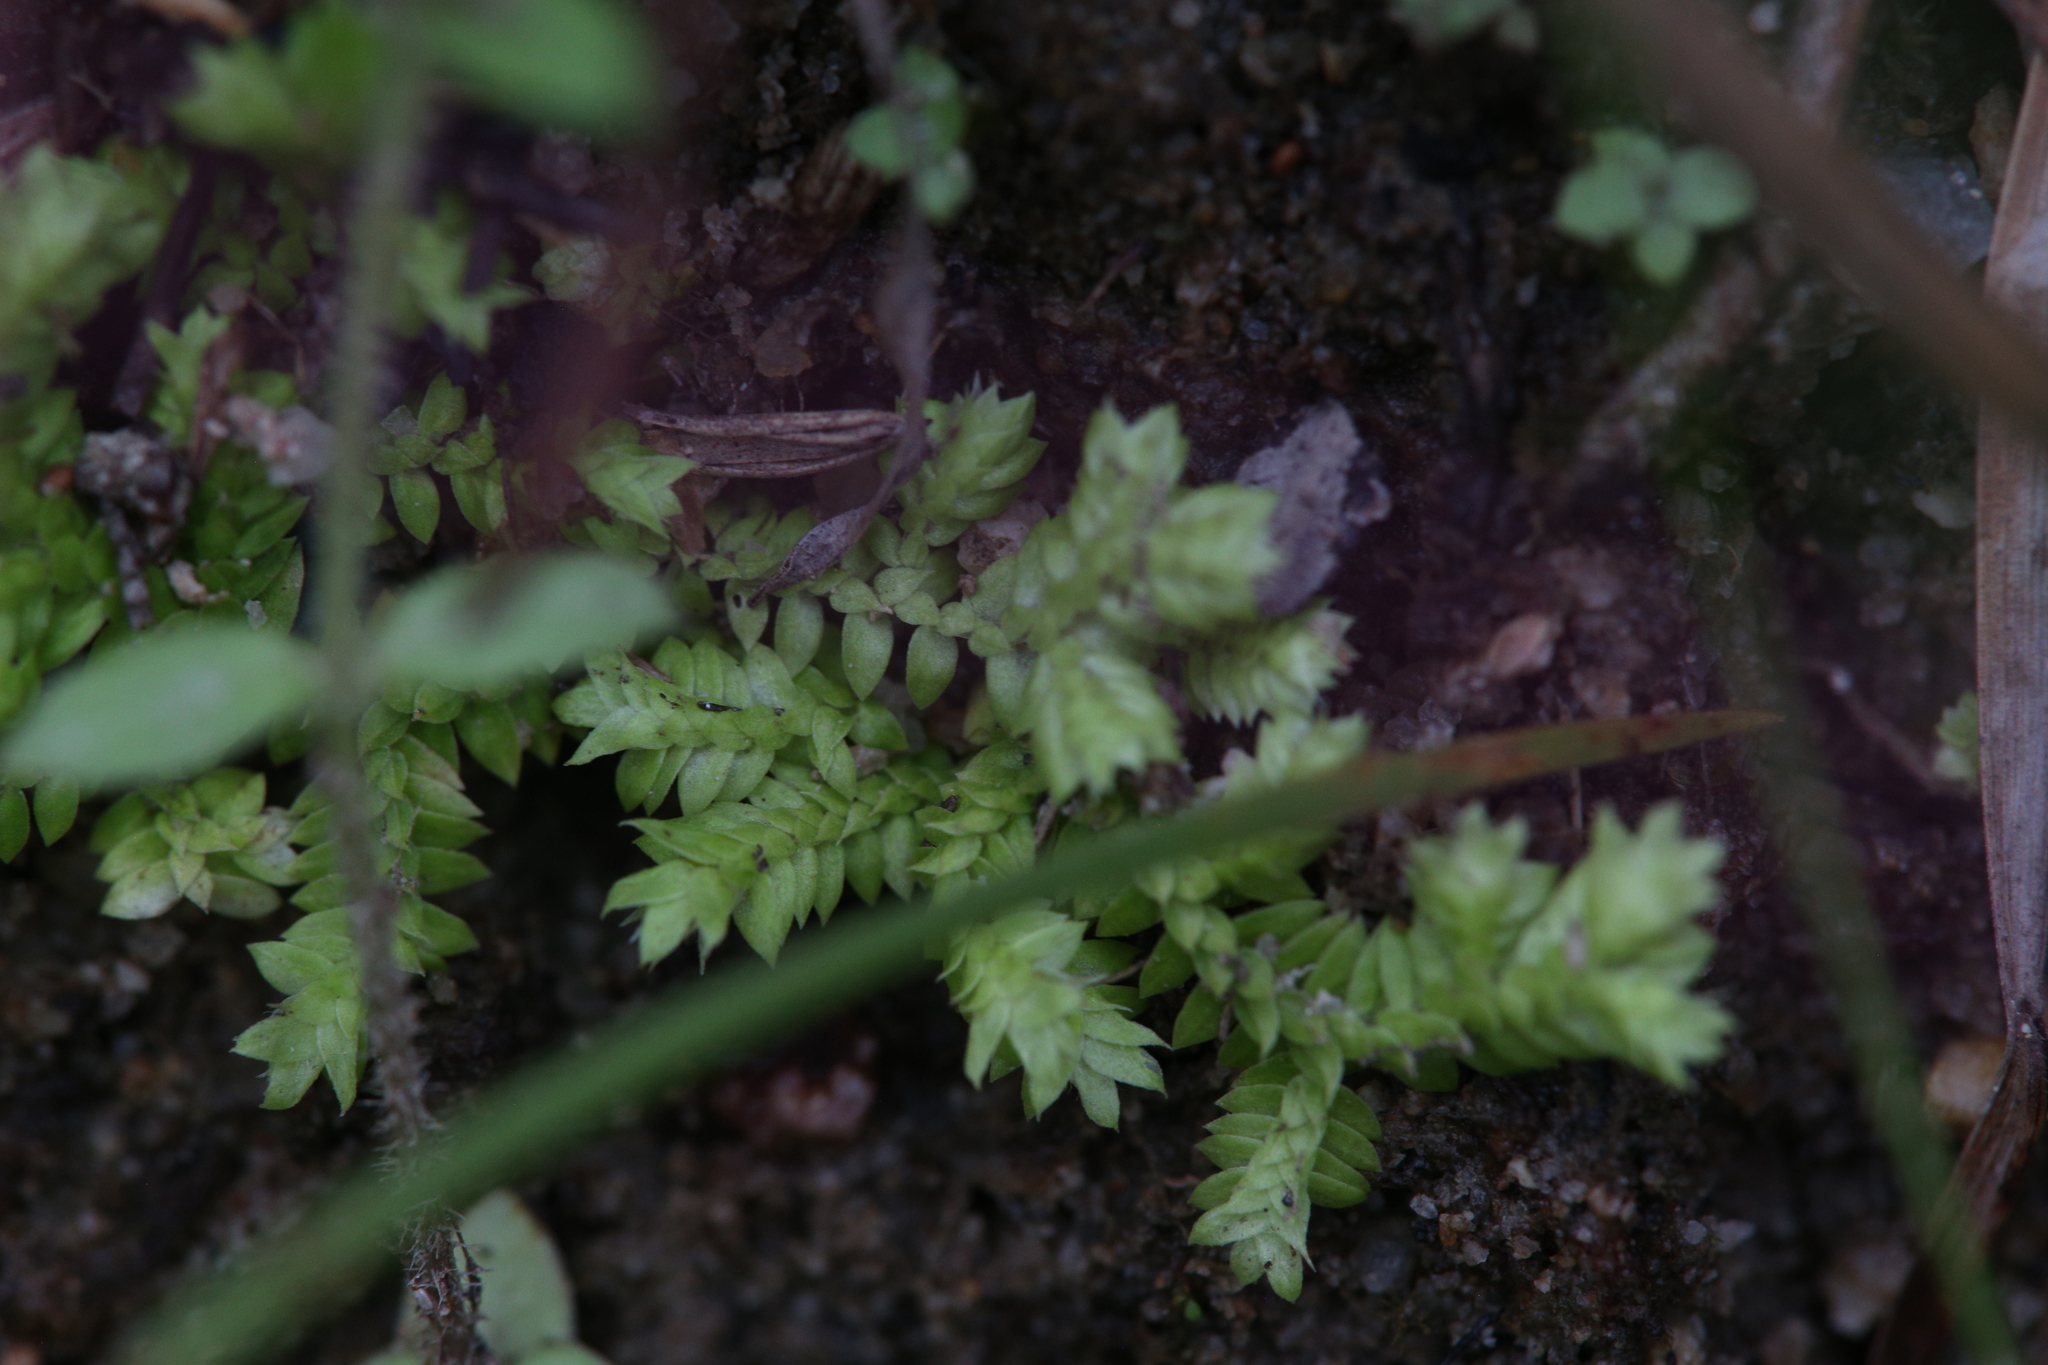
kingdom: Plantae
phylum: Tracheophyta
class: Lycopodiopsida
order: Selaginellales
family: Selaginellaceae
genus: Selaginella
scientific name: Selaginella ciliaris
